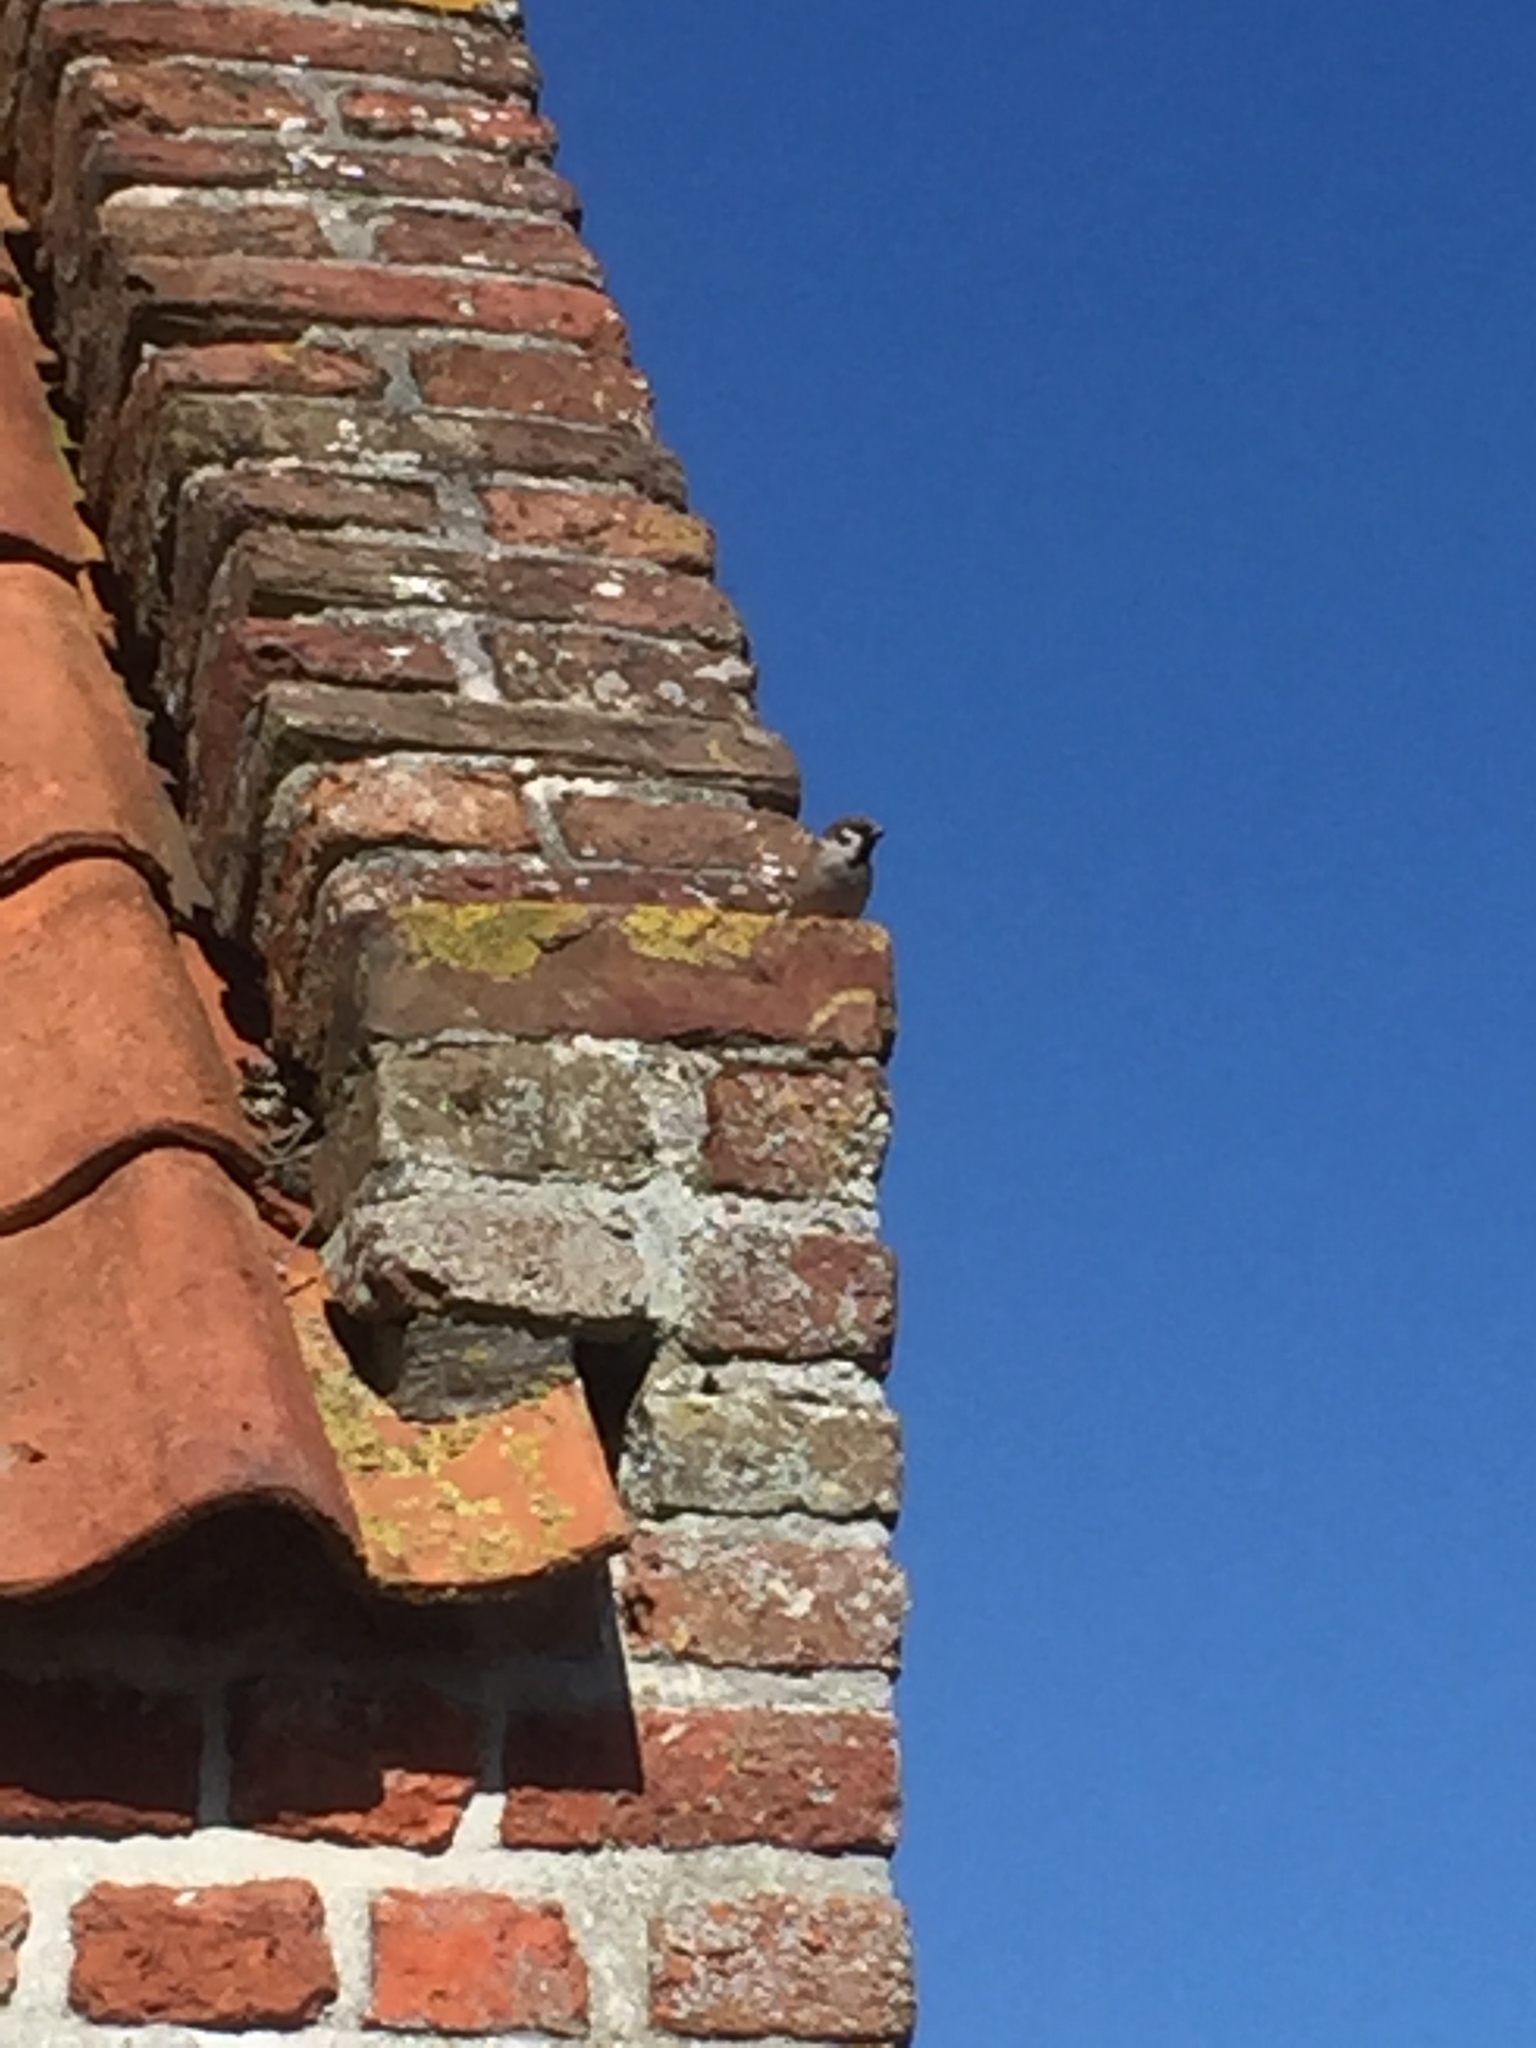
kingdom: Animalia
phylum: Chordata
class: Aves
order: Passeriformes
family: Passeridae
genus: Passer
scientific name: Passer montanus
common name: Eurasian tree sparrow
